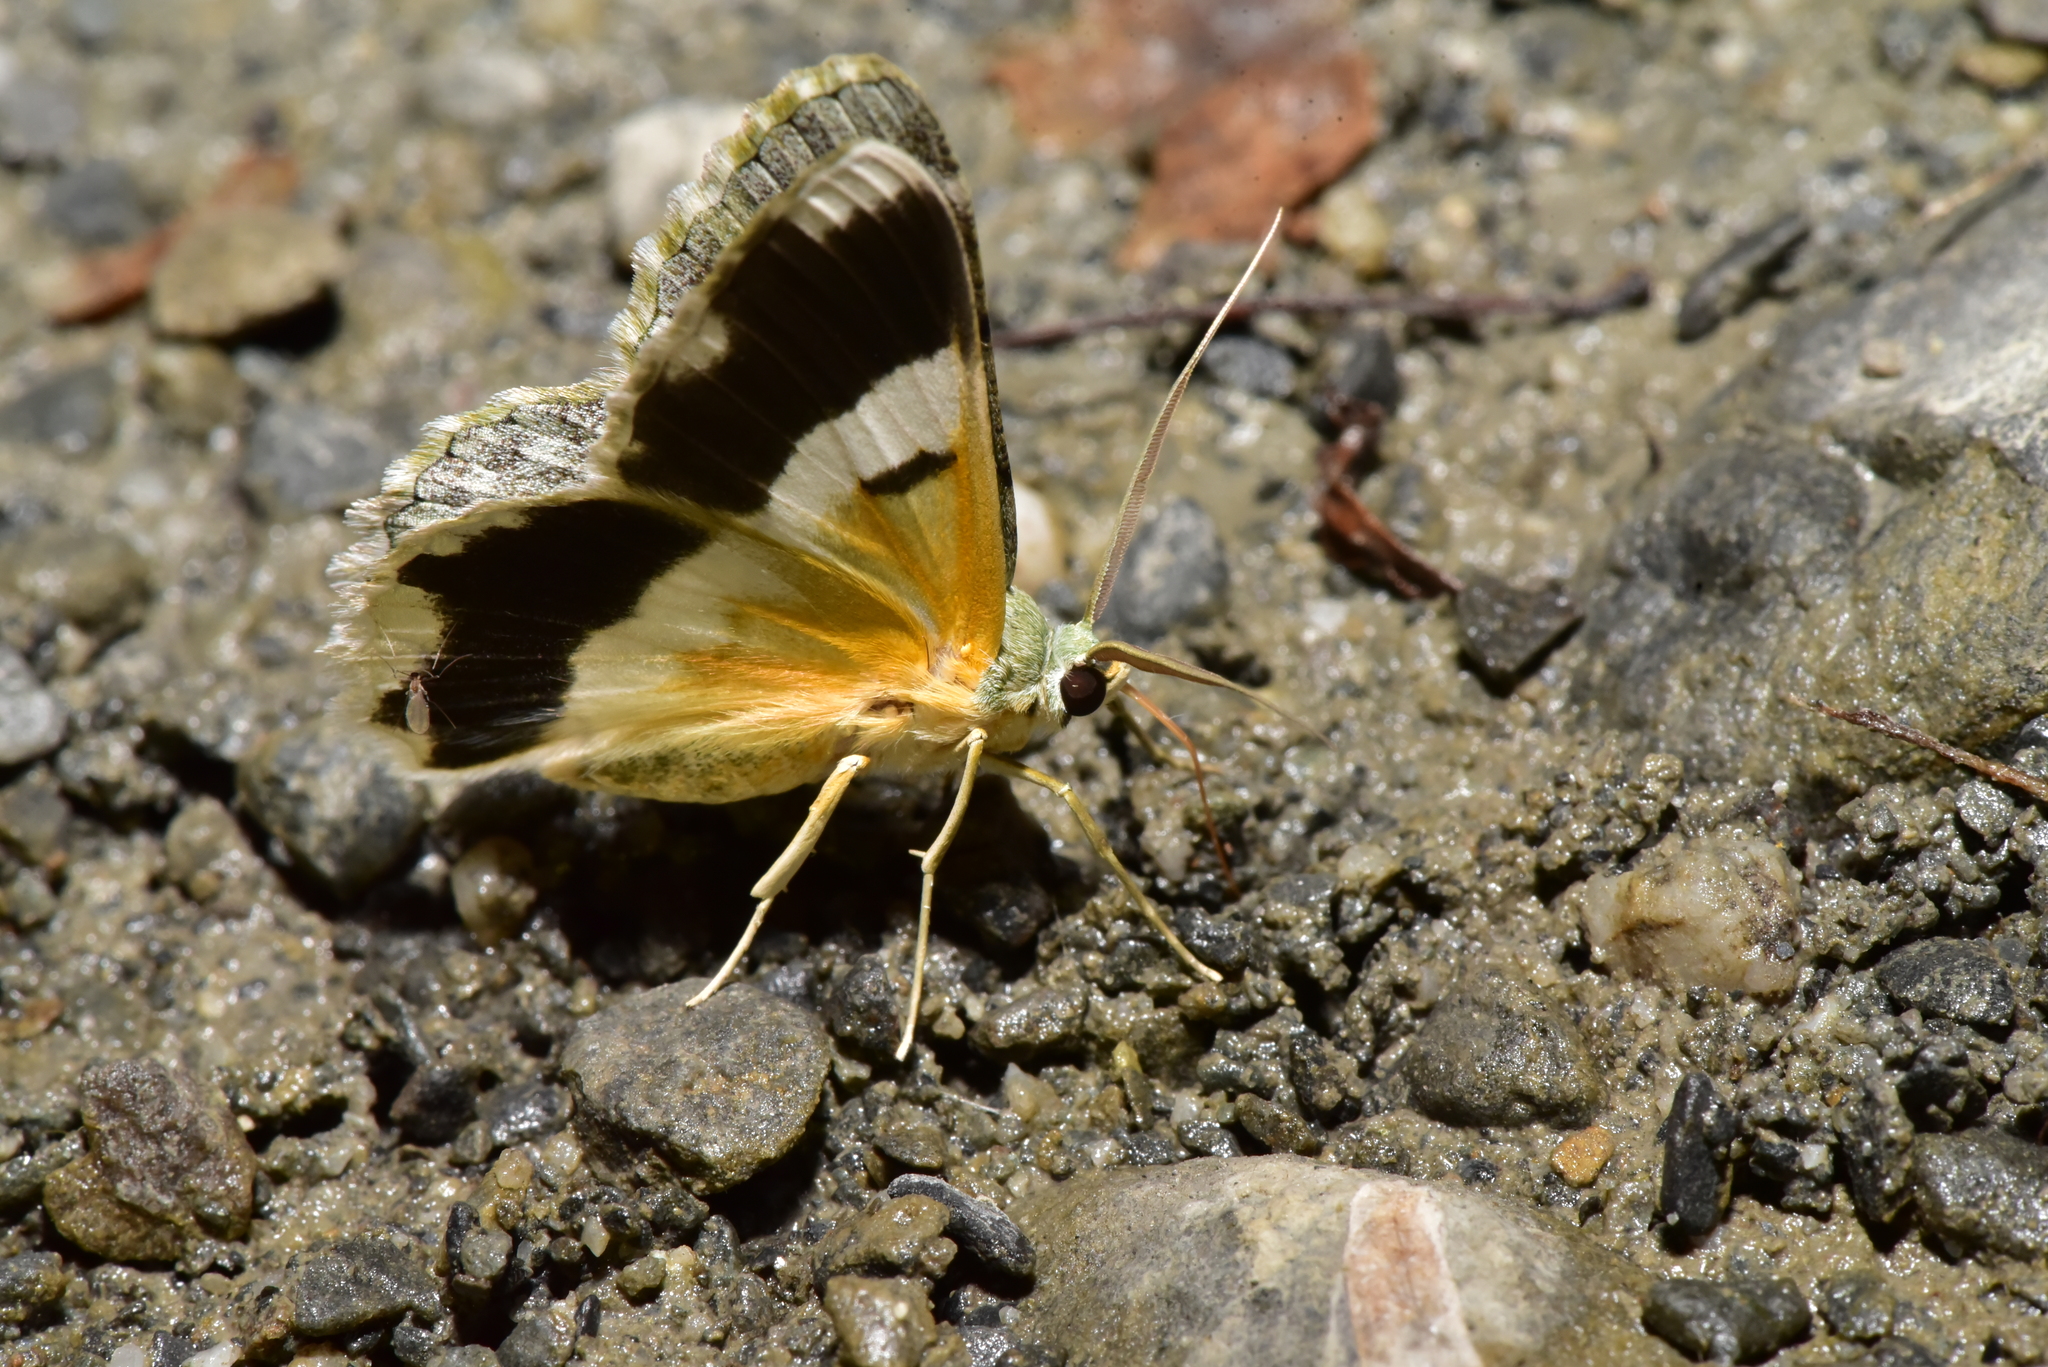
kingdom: Animalia
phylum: Arthropoda
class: Insecta
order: Lepidoptera
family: Geometridae
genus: Pingasa
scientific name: Pingasa ruginaria
